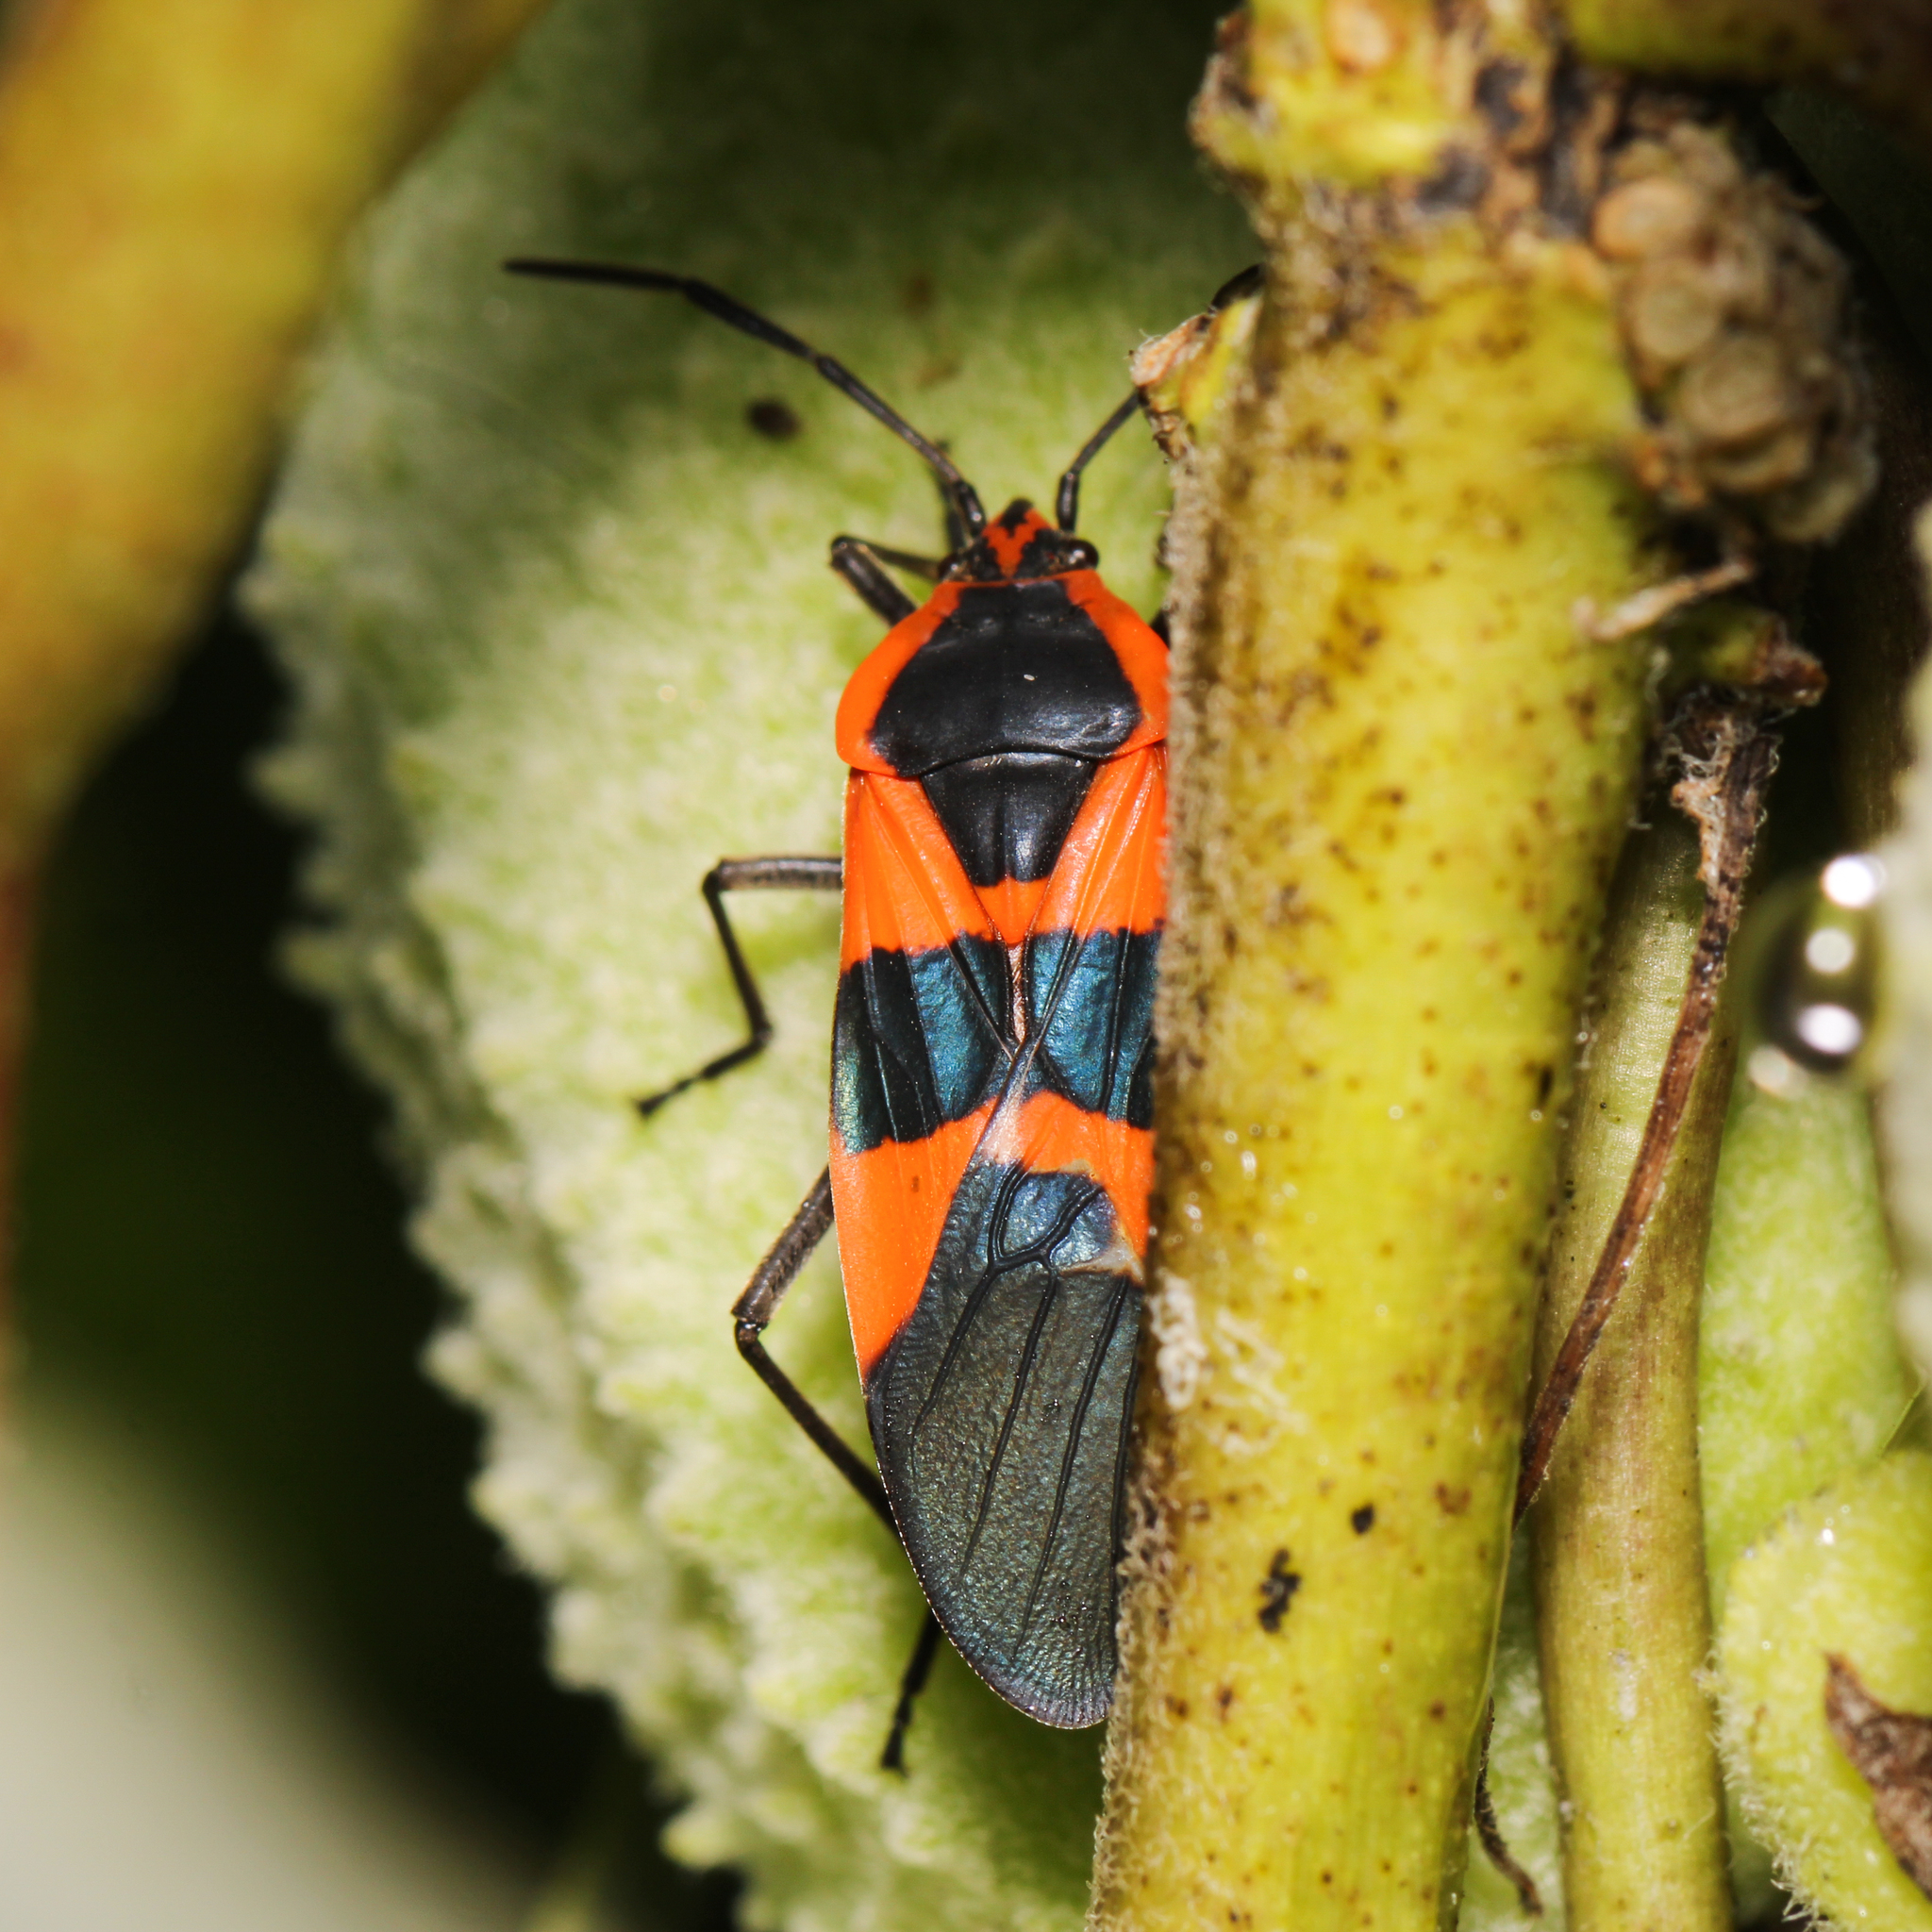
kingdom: Animalia
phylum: Arthropoda
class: Insecta
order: Hemiptera
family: Lygaeidae
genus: Oncopeltus
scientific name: Oncopeltus fasciatus
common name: Large milkweed bug
